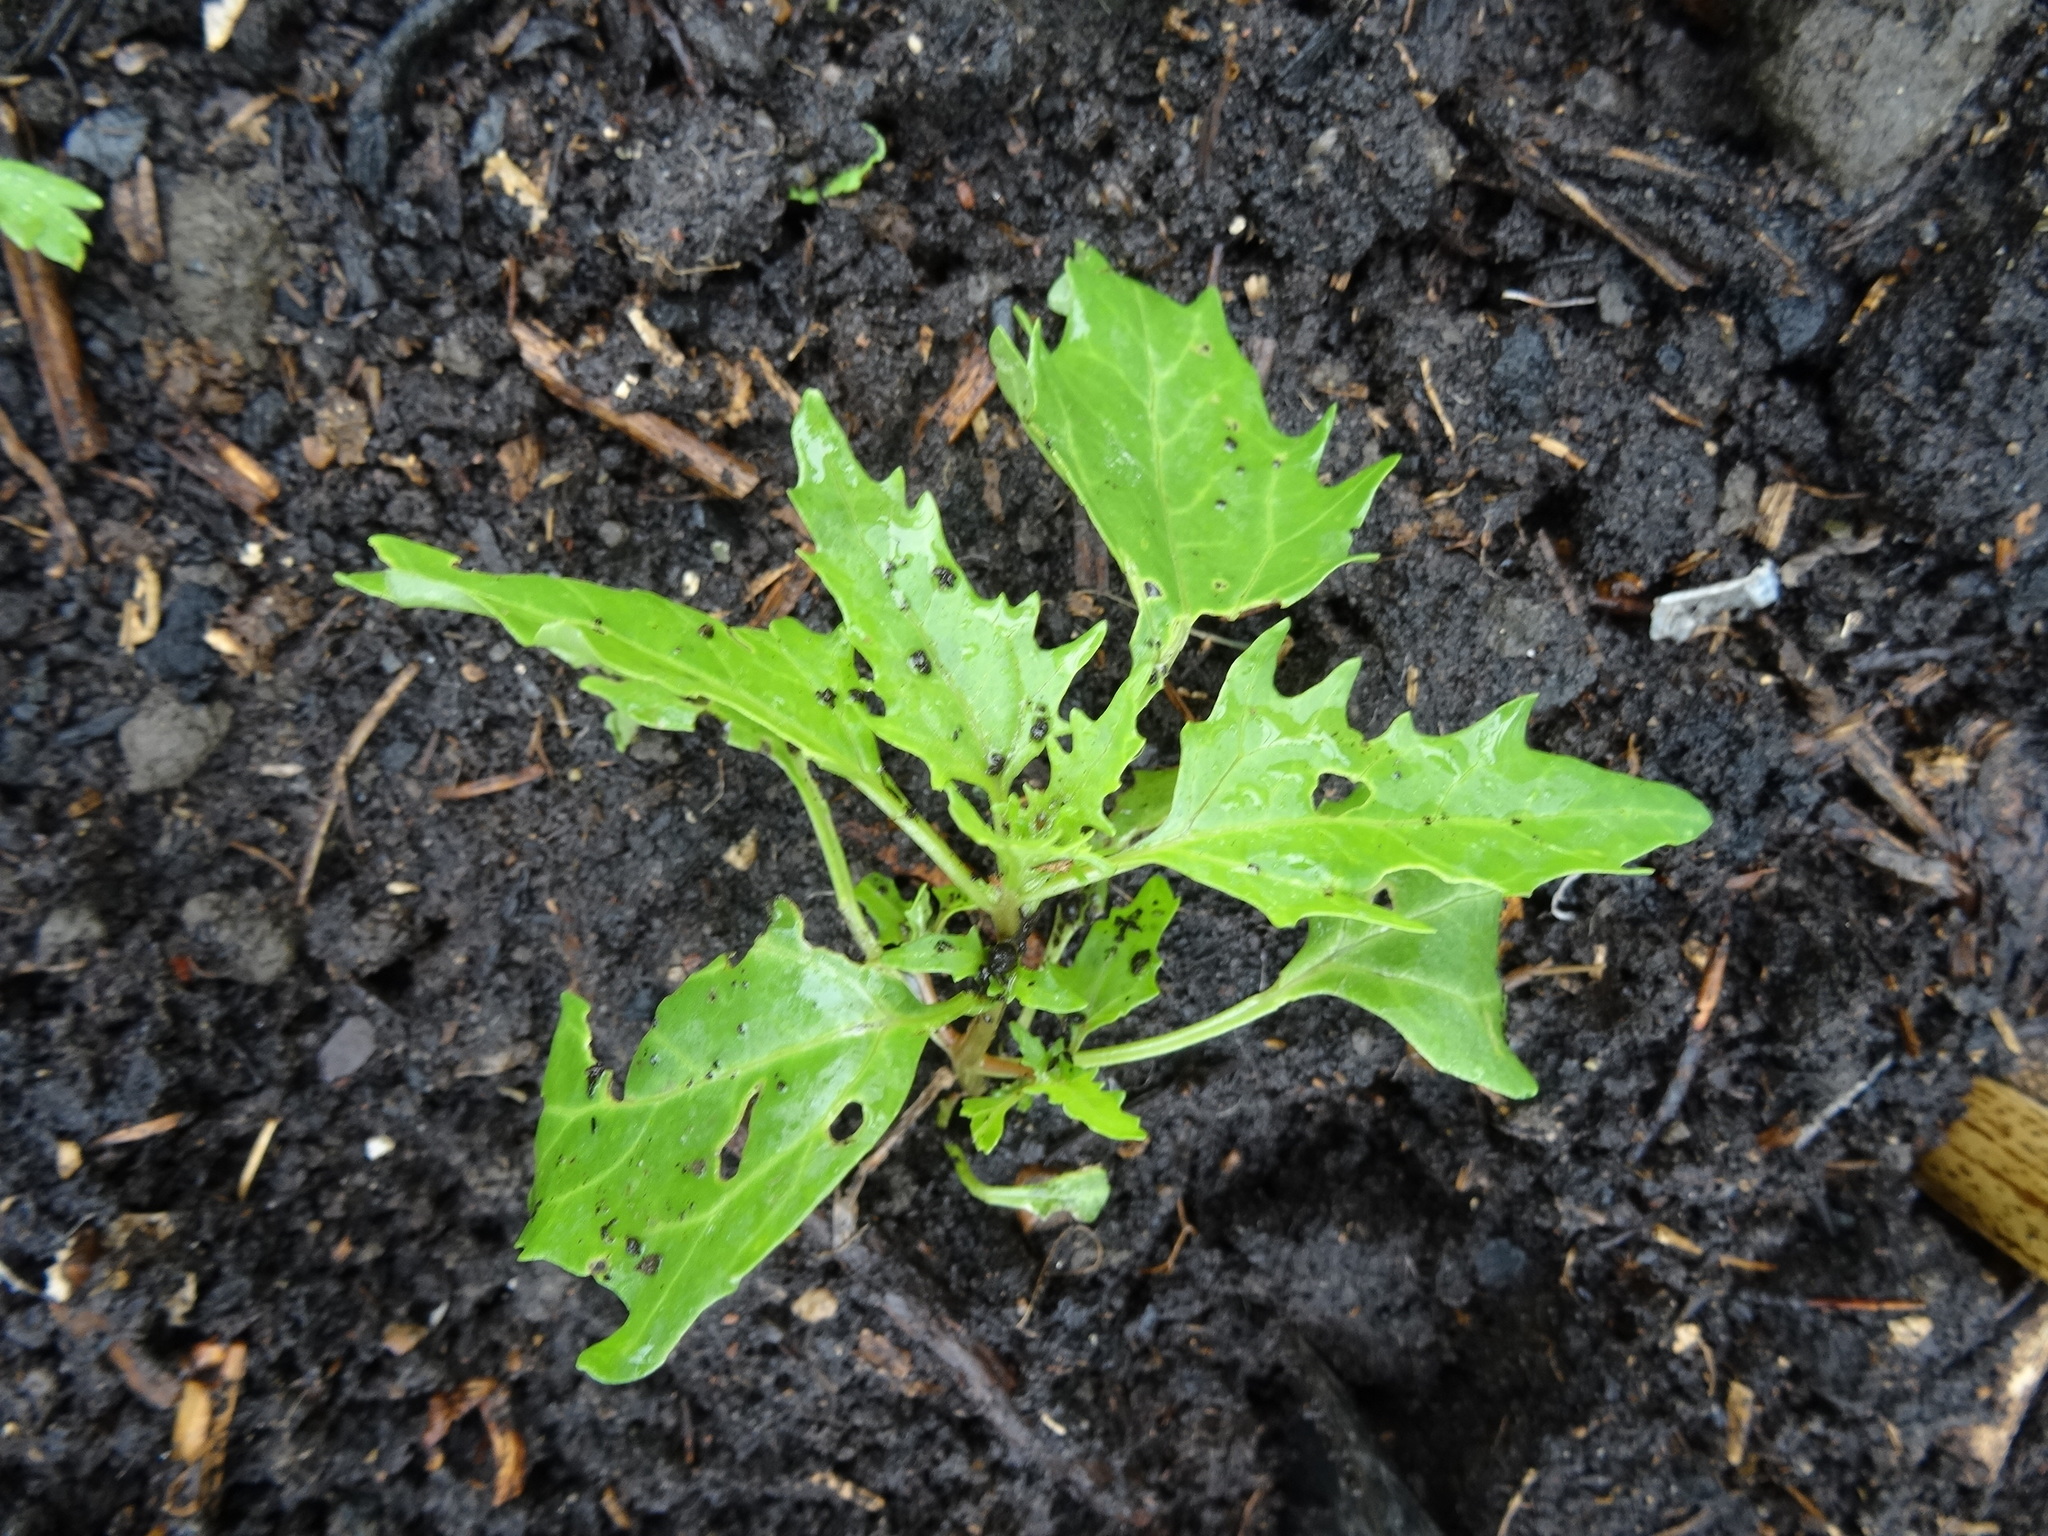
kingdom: Plantae
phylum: Tracheophyta
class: Magnoliopsida
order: Caryophyllales
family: Amaranthaceae
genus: Oxybasis
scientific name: Oxybasis rubra
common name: Red goosefoot
